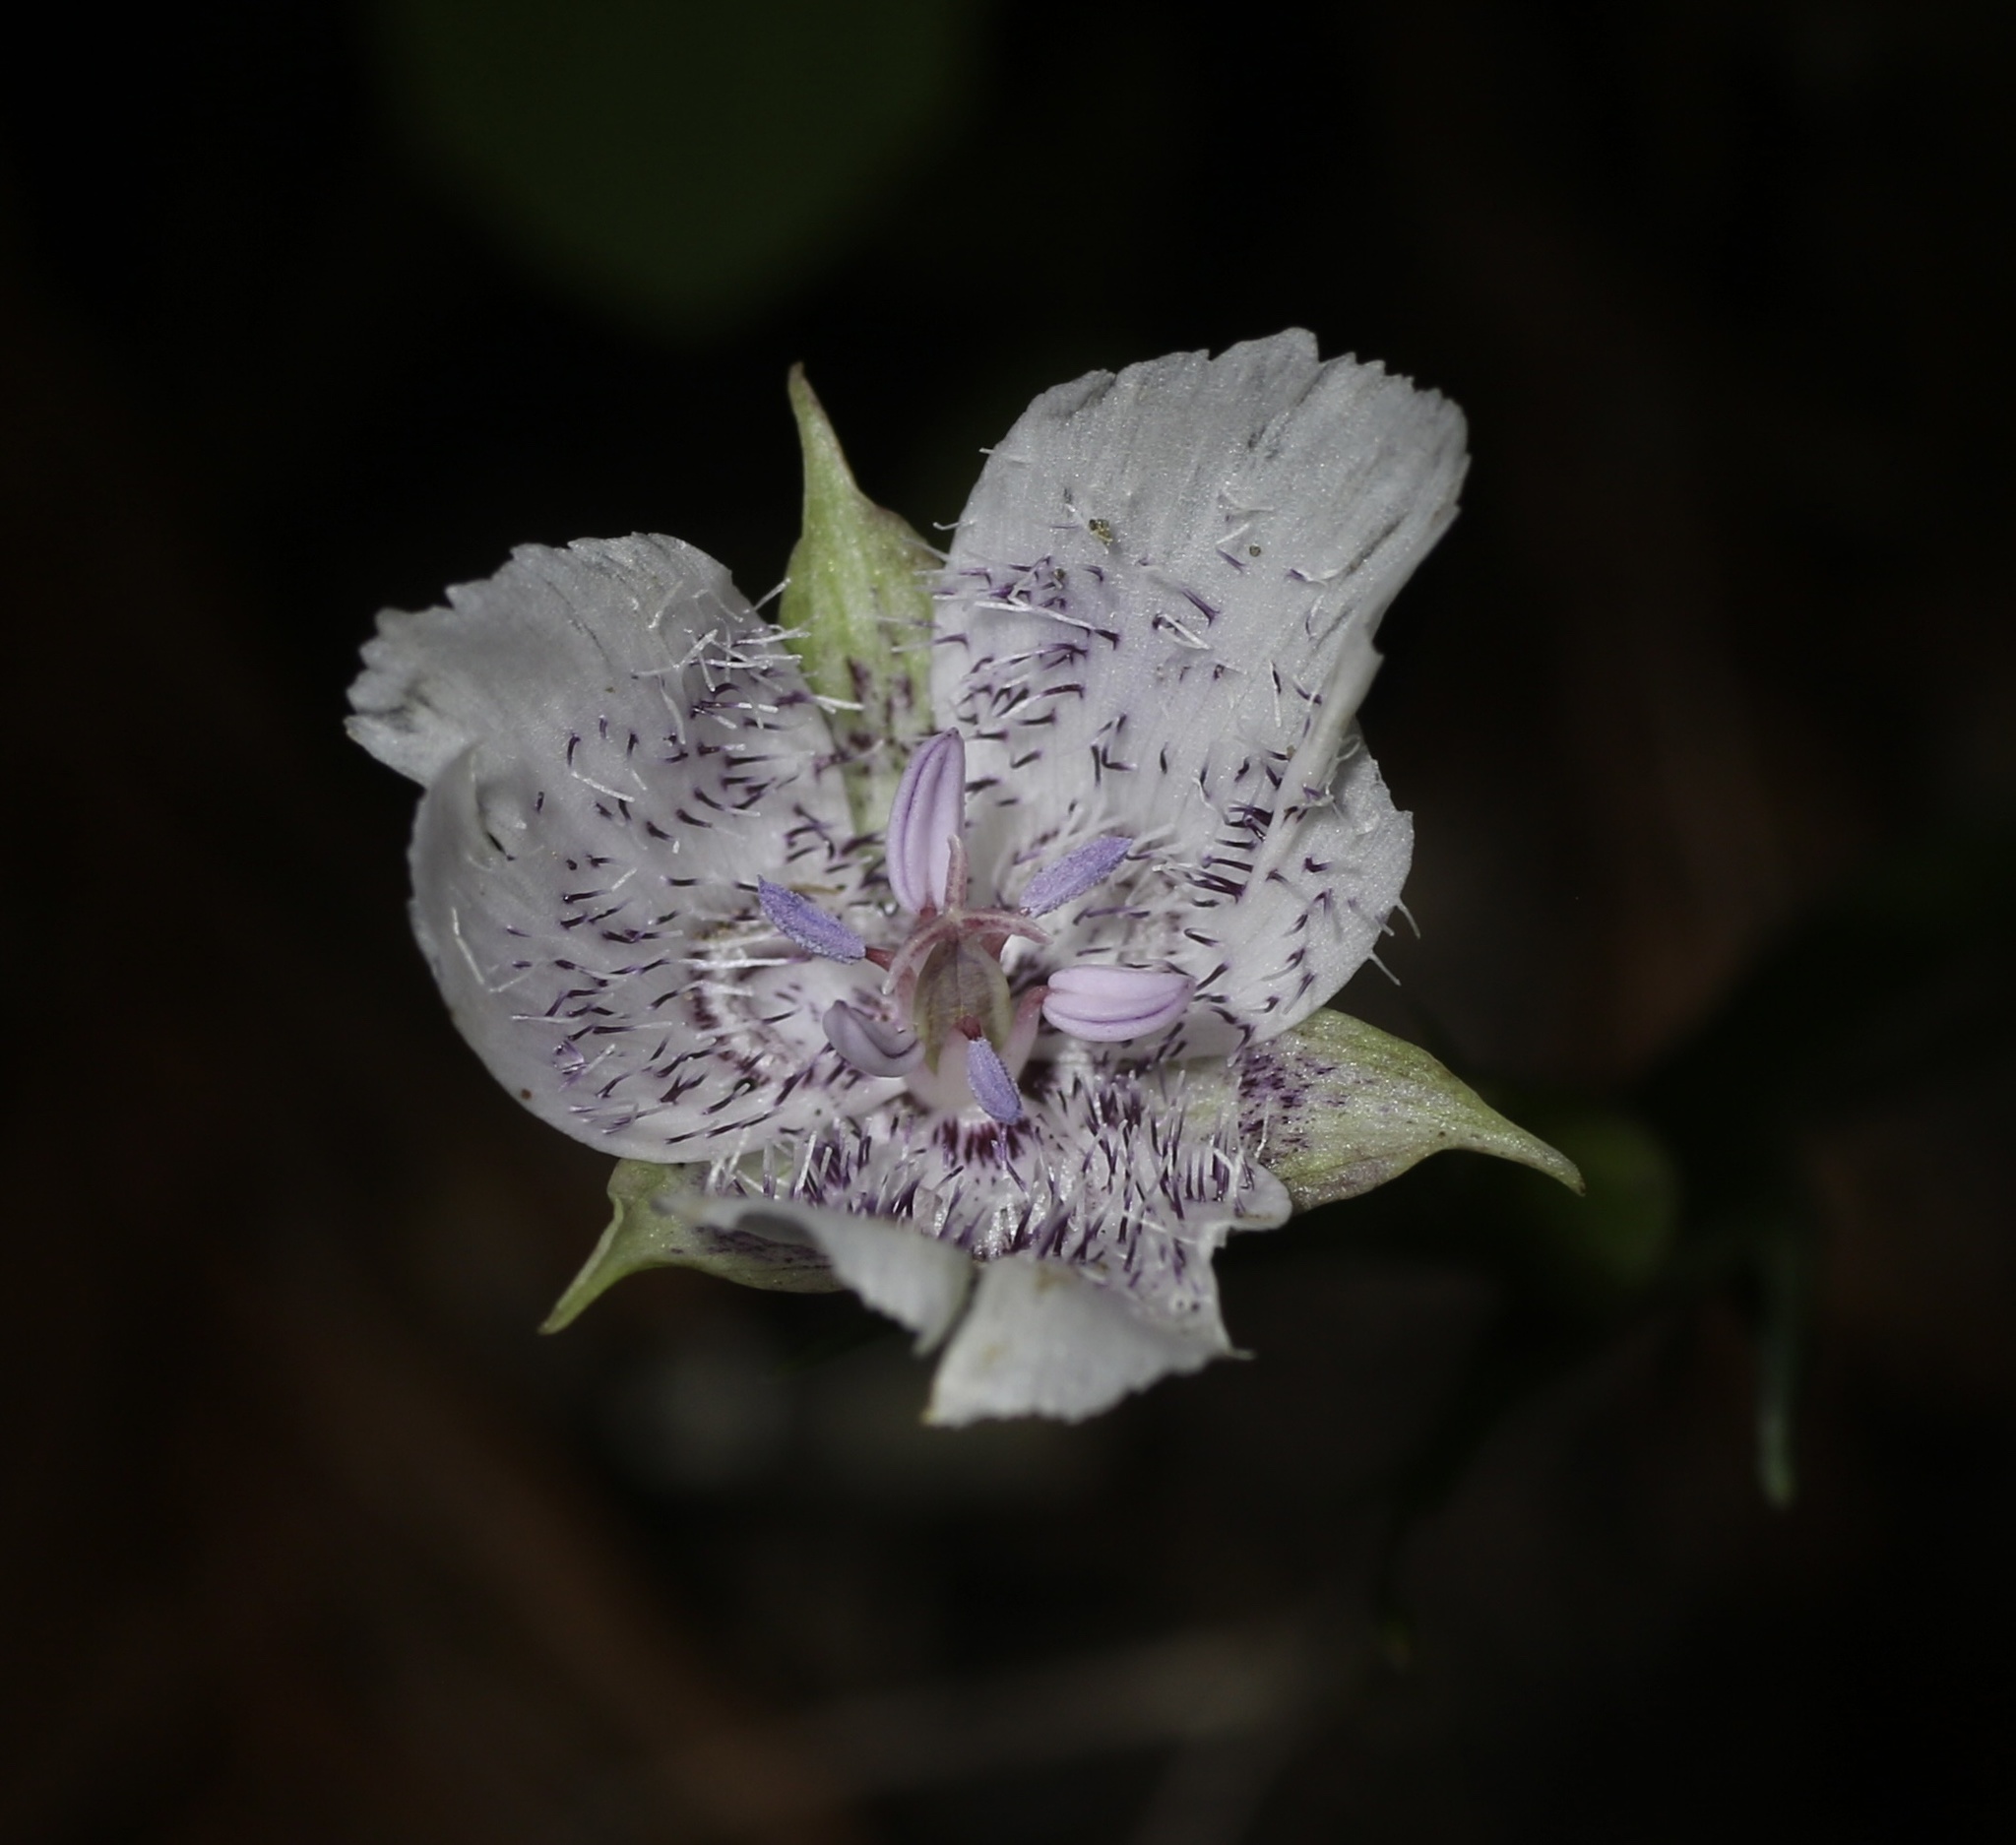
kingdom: Plantae
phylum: Tracheophyta
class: Liliopsida
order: Liliales
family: Liliaceae
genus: Calochortus
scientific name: Calochortus tolmiei
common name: Pussy-ears
